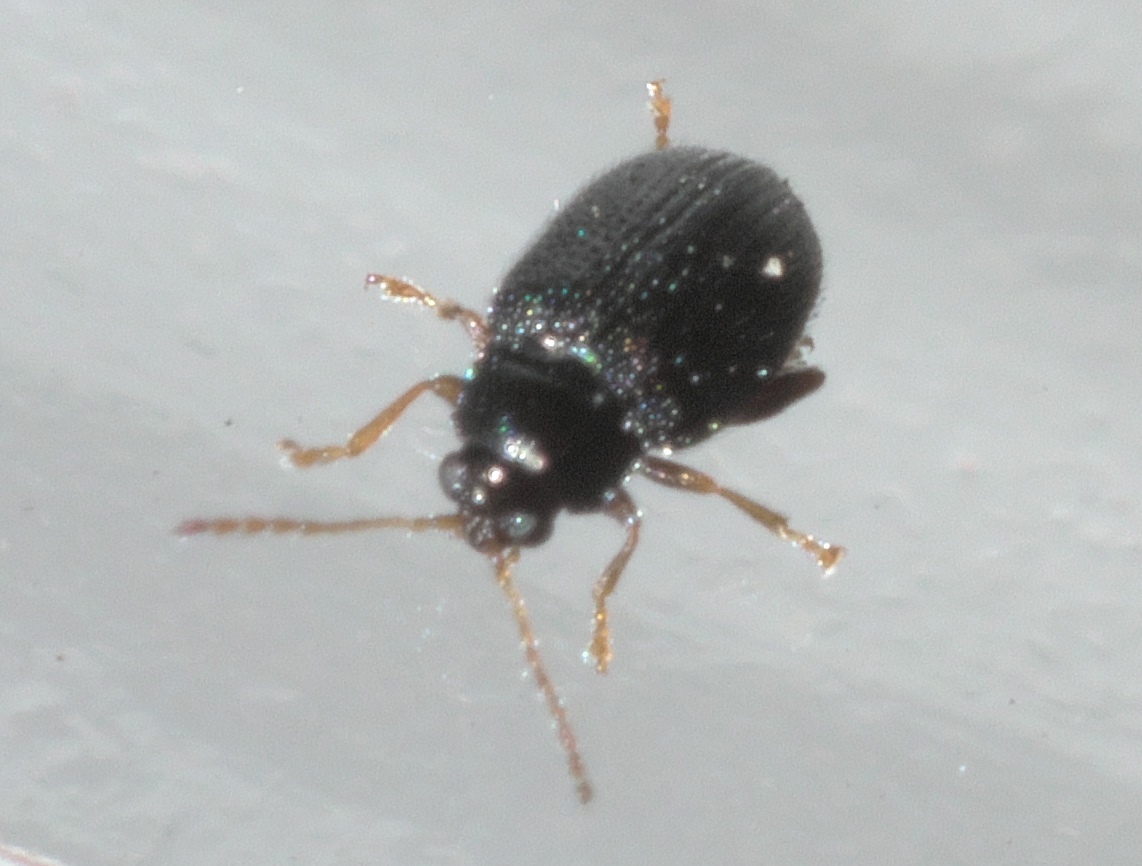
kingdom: Animalia
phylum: Arthropoda
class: Insecta
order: Coleoptera
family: Chrysomelidae
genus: Epitrix
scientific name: Epitrix cucumeris
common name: Potato flea beetle
